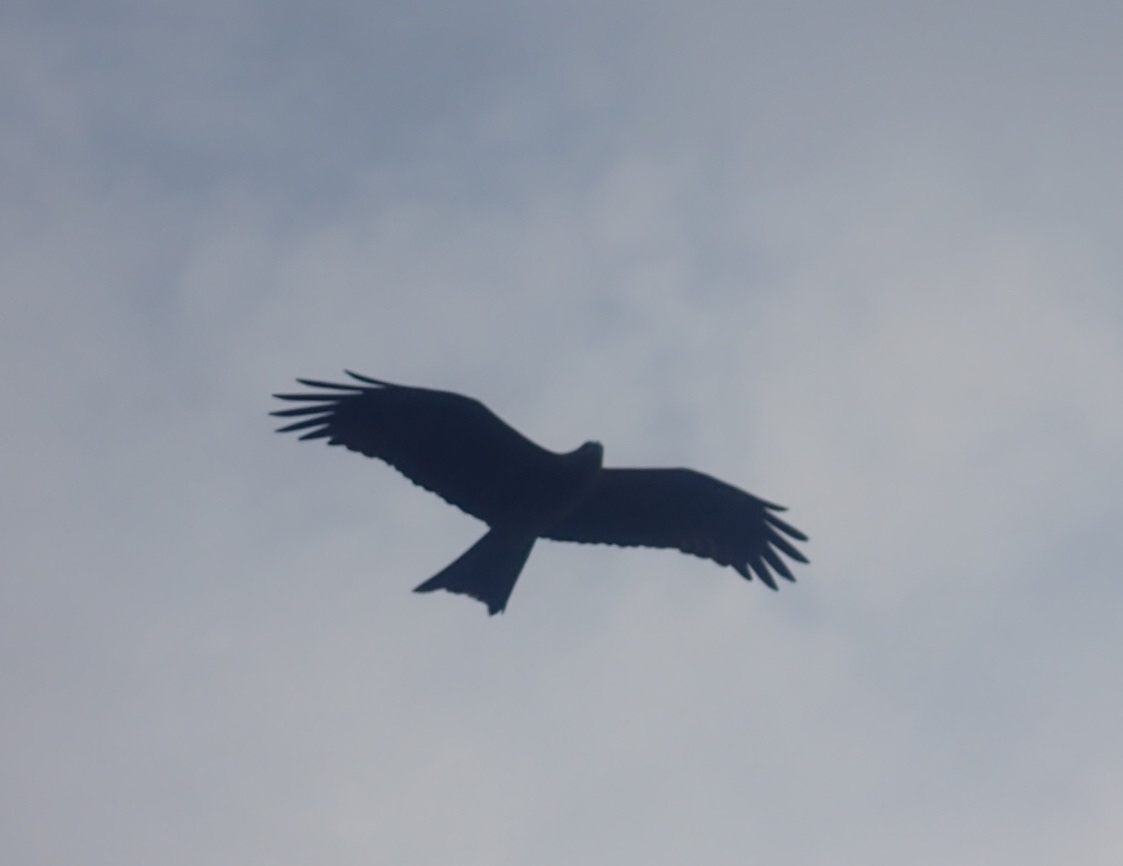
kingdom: Animalia
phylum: Chordata
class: Aves
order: Accipitriformes
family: Accipitridae
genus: Milvus
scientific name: Milvus migrans
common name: Black kite
